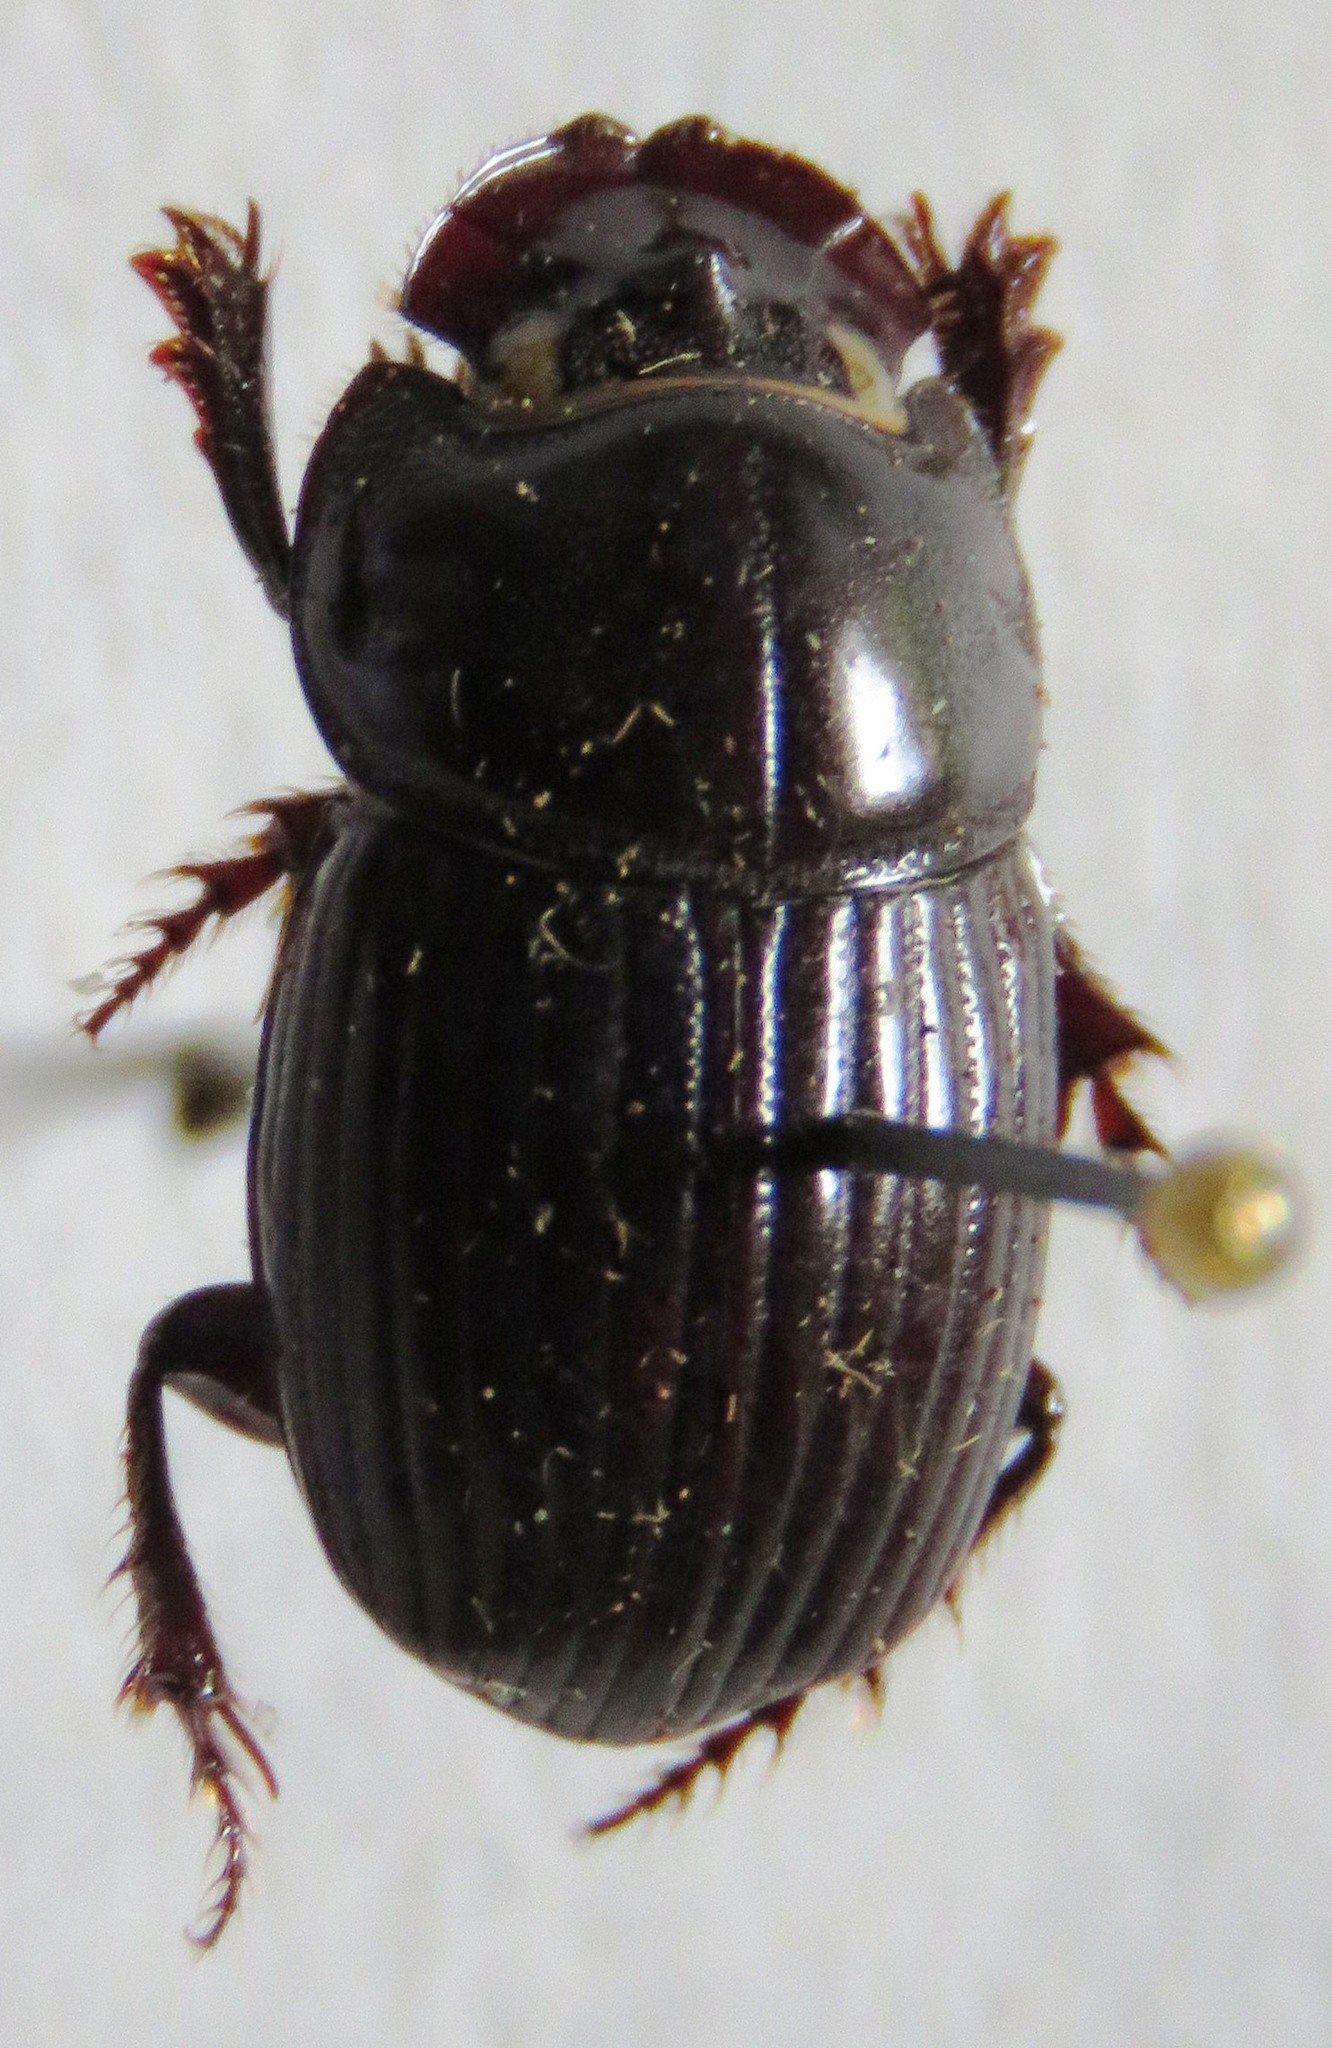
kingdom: Animalia
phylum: Arthropoda
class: Insecta
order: Coleoptera
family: Scarabaeidae
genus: Copris
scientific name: Copris laeviceps
